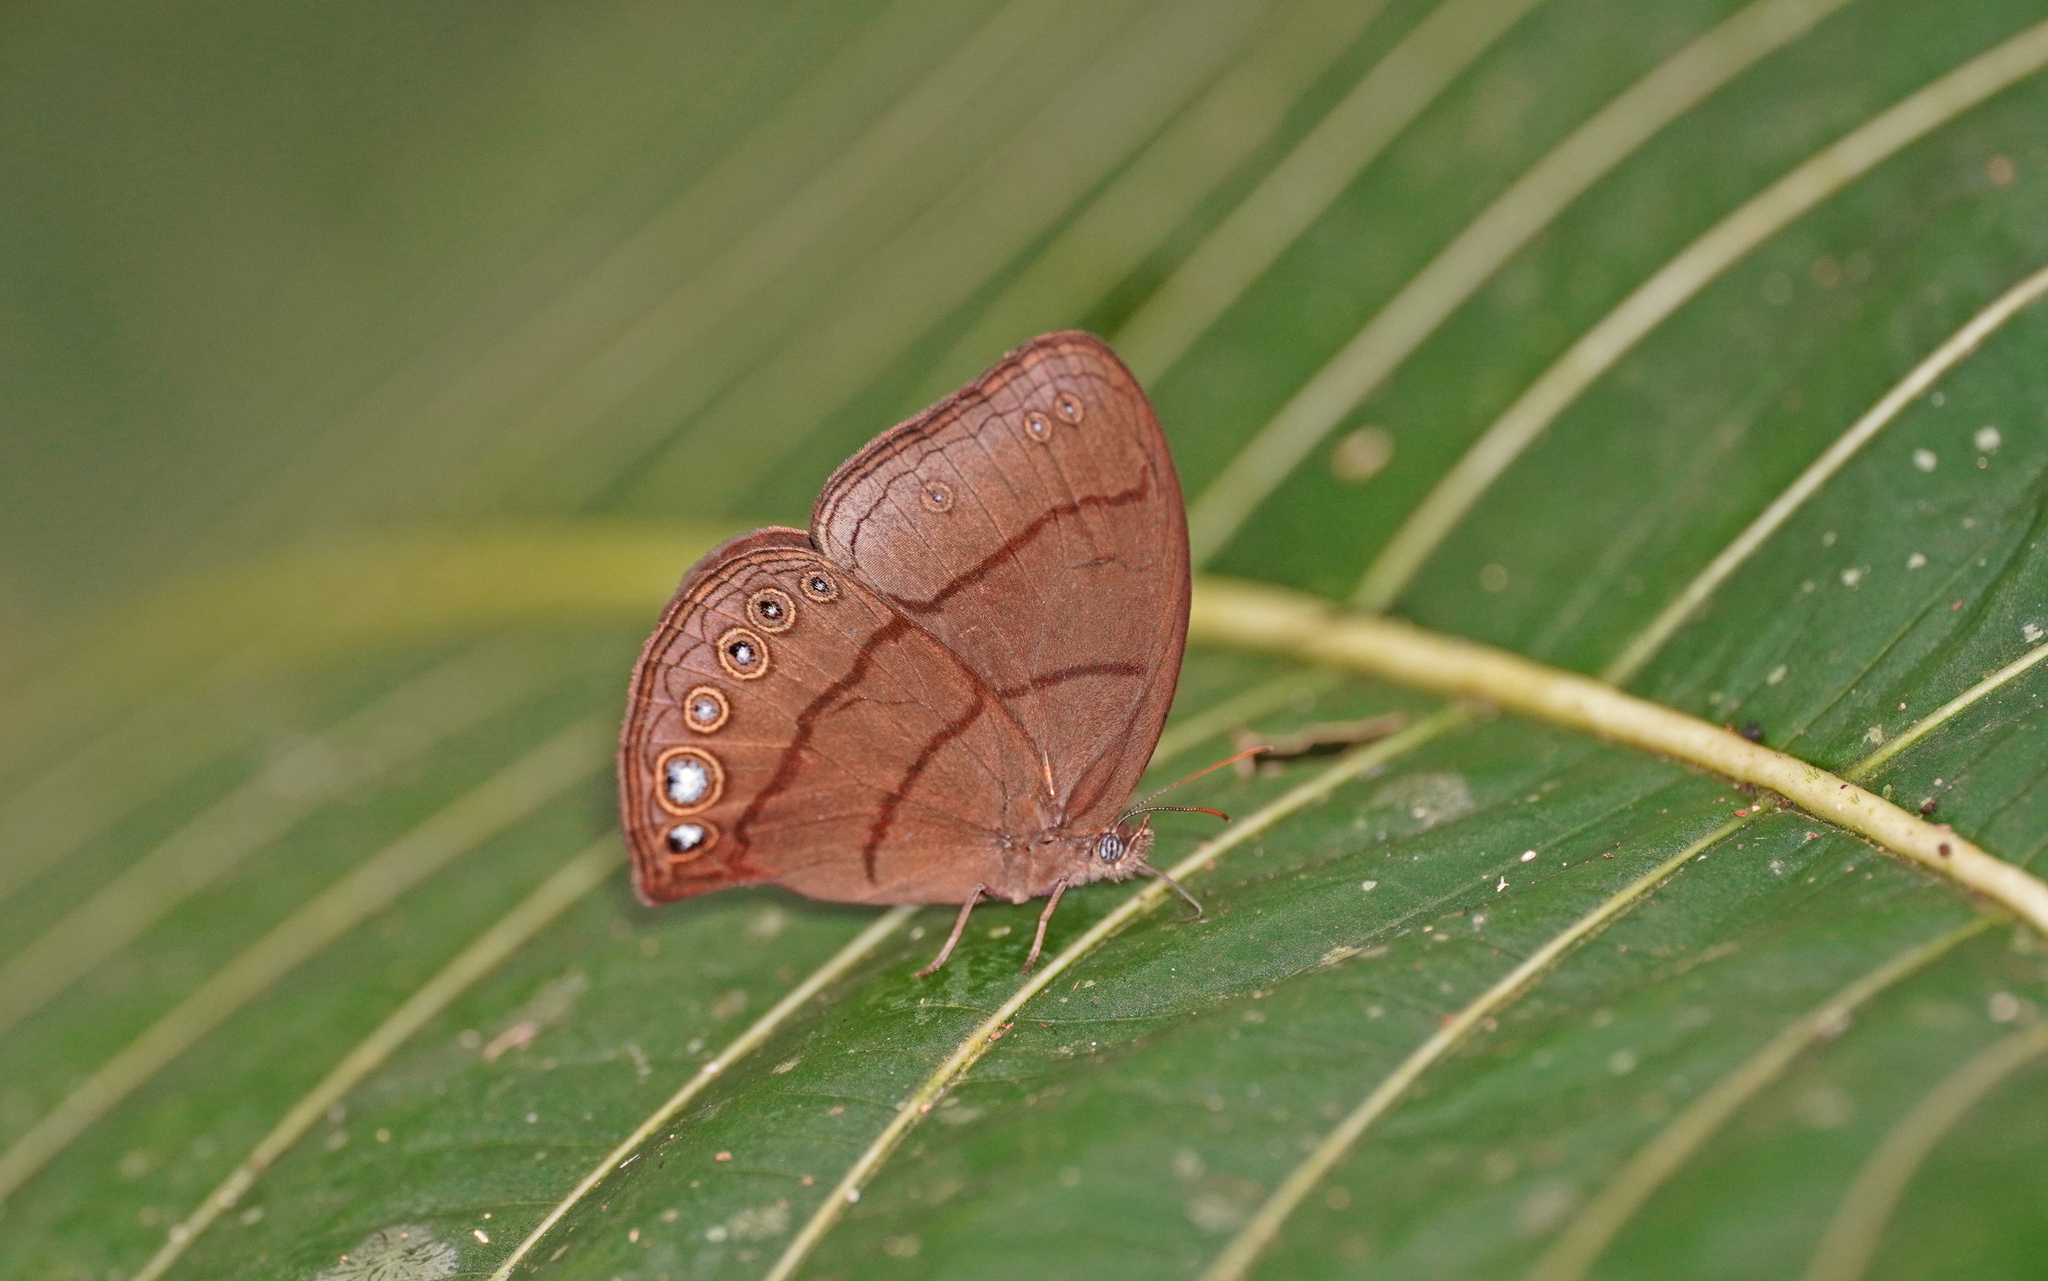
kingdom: Animalia
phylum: Arthropoda
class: Insecta
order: Lepidoptera
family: Nymphalidae
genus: Erichthodes
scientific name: Erichthodes erichtho
